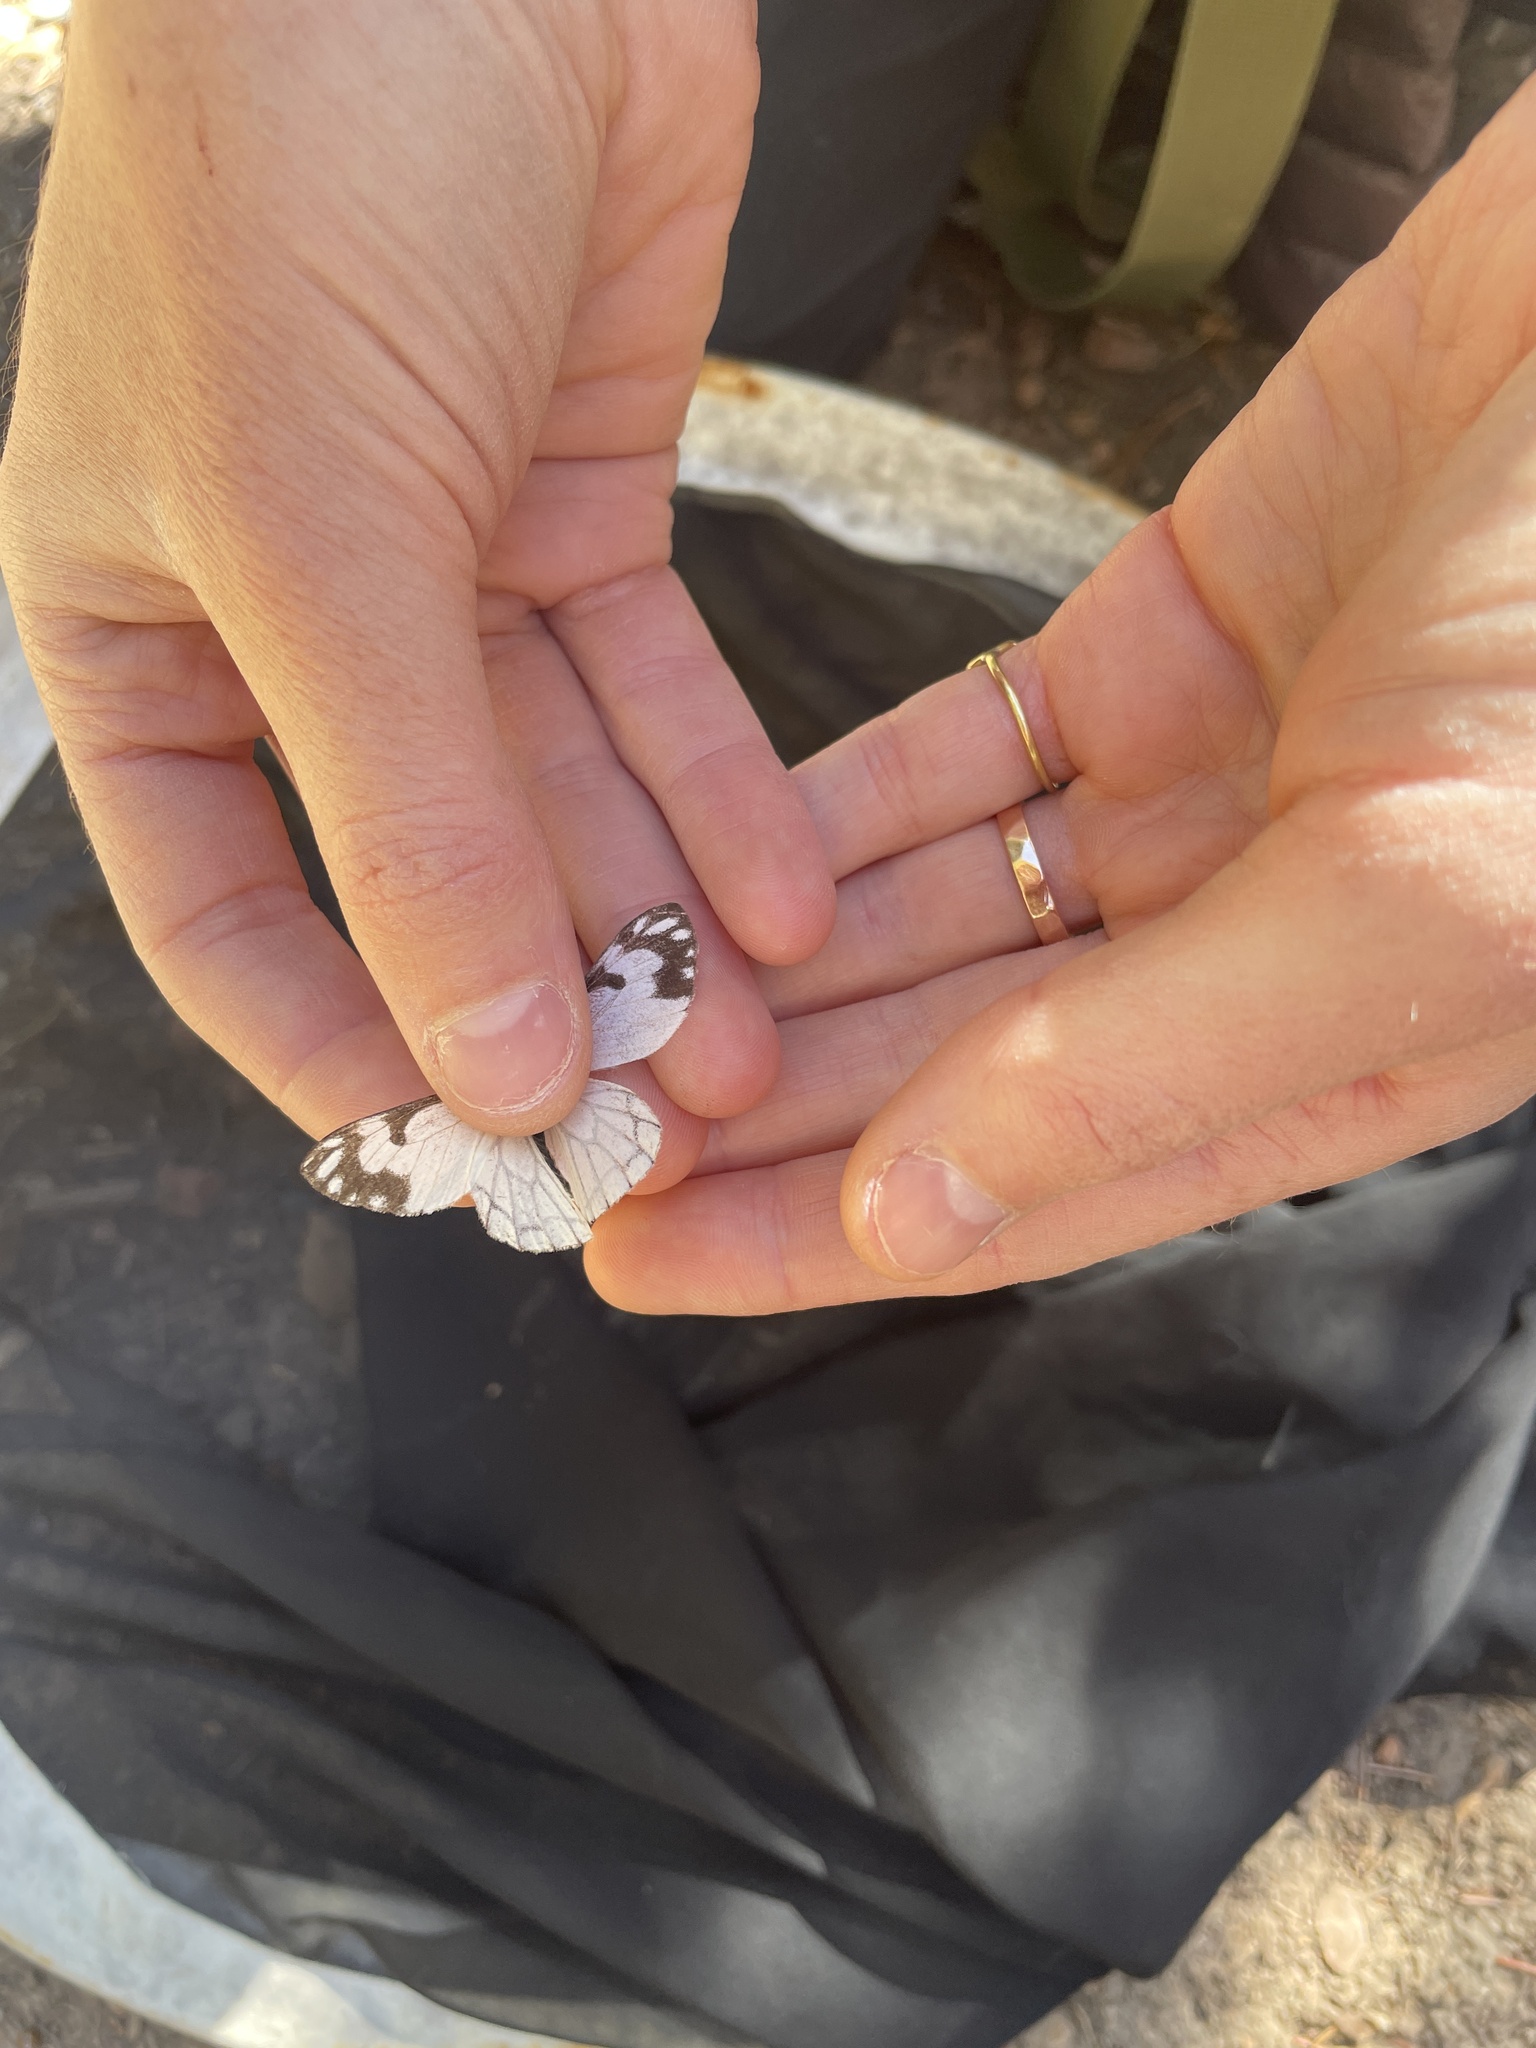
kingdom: Animalia
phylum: Arthropoda
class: Insecta
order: Lepidoptera
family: Pieridae
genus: Neophasia
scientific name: Neophasia menapia
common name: Pine white
